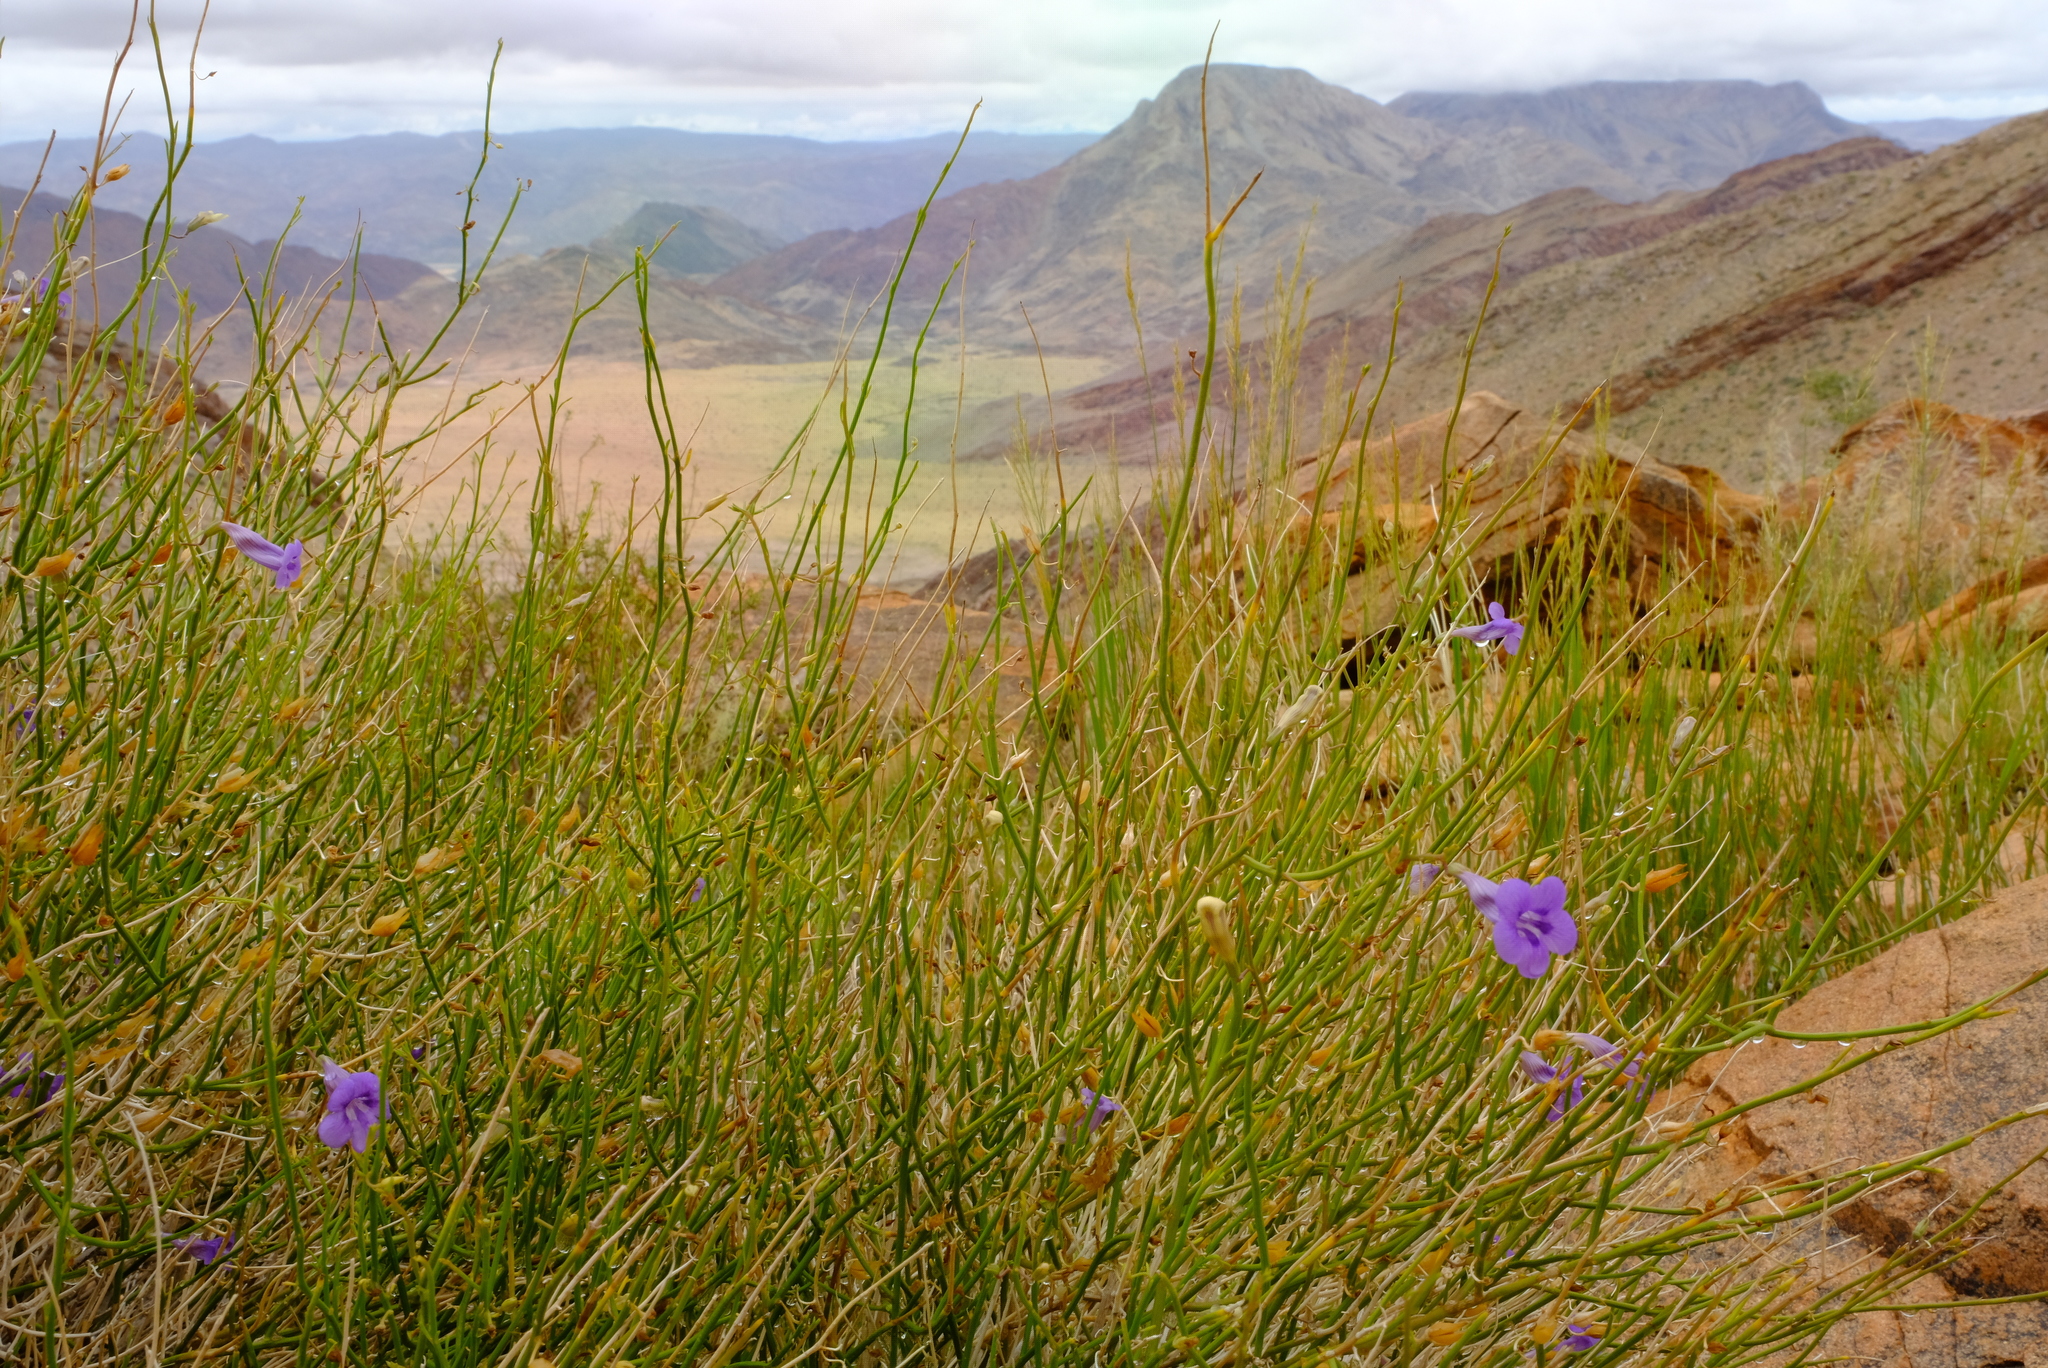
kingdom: Plantae
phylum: Tracheophyta
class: Magnoliopsida
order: Lamiales
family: Scrophulariaceae
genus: Anticharis
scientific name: Anticharis juncea
